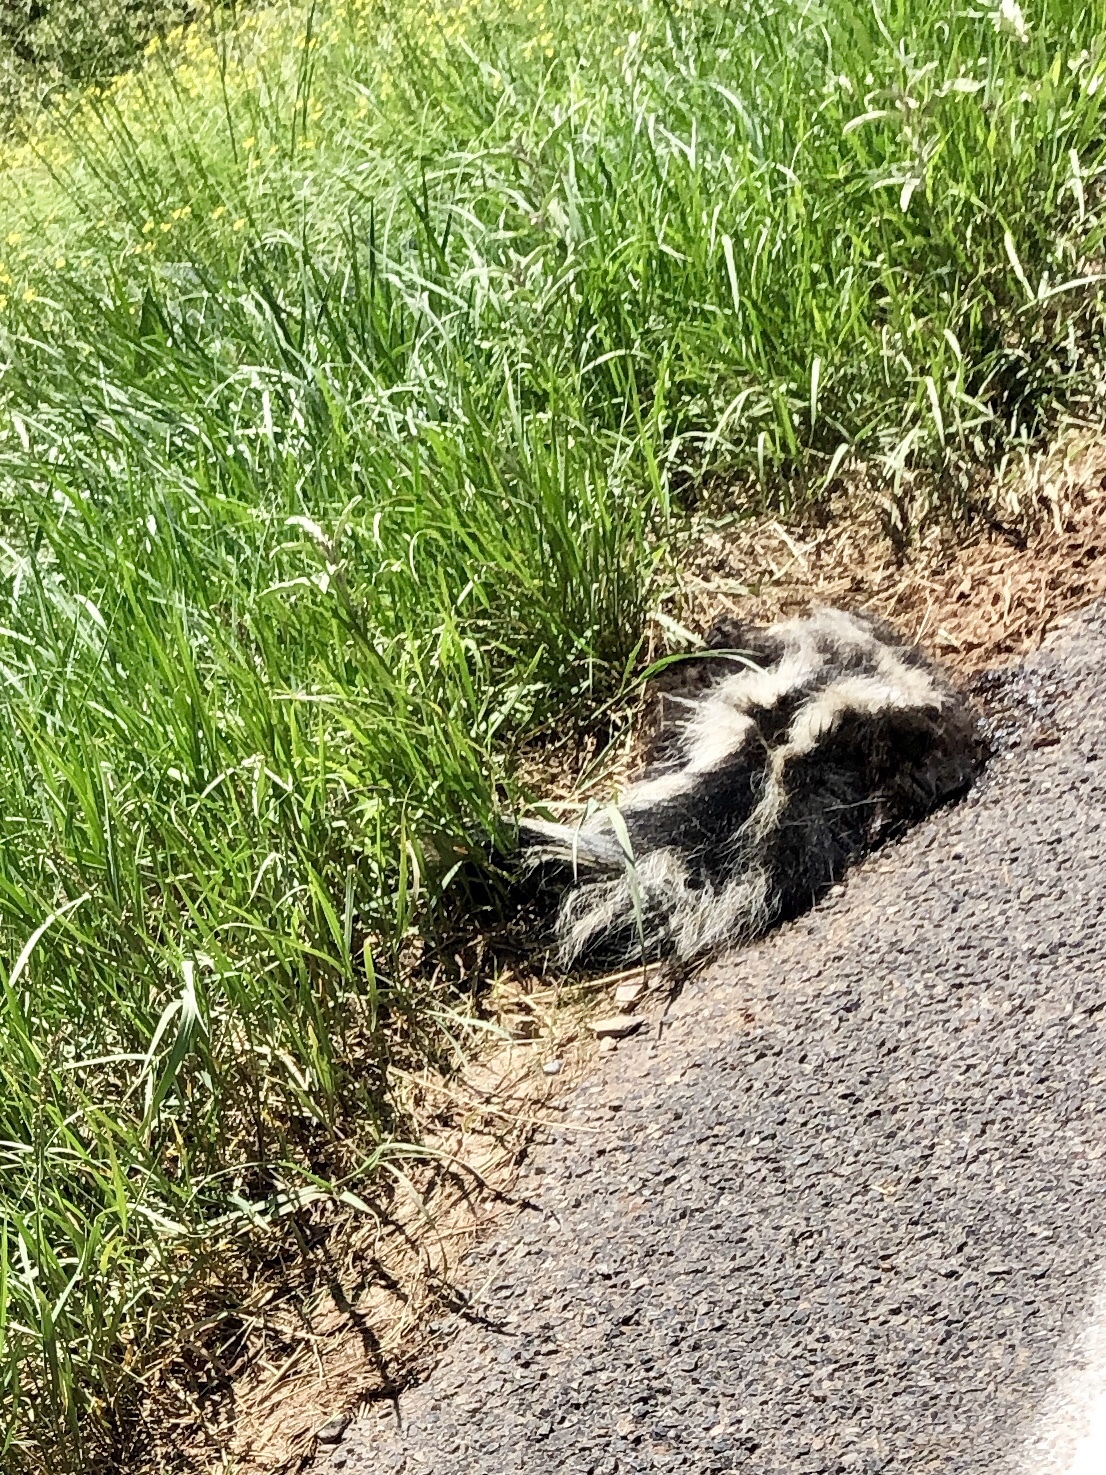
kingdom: Animalia
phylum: Chordata
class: Mammalia
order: Carnivora
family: Mephitidae
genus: Mephitis
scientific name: Mephitis mephitis
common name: Striped skunk
